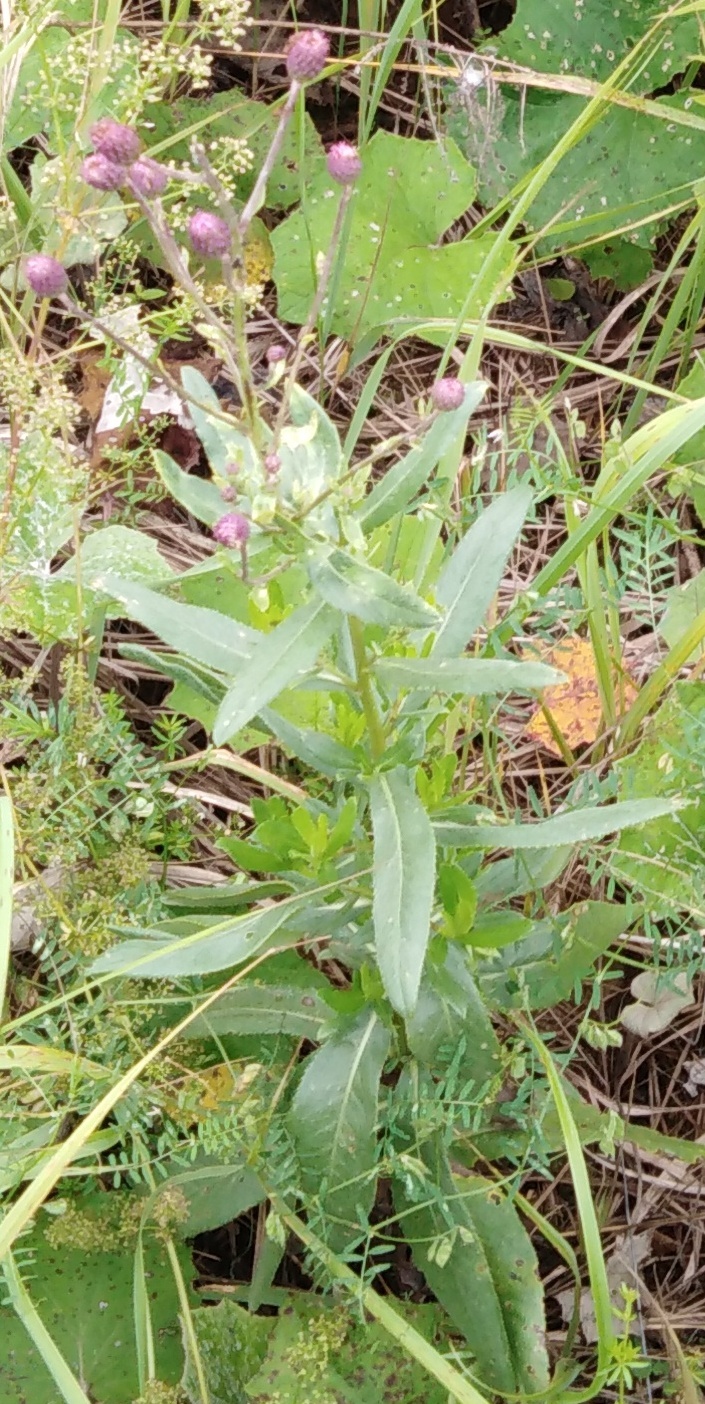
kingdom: Plantae
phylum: Tracheophyta
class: Magnoliopsida
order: Asterales
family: Asteraceae
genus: Cirsium
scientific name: Cirsium arvense
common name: Creeping thistle
